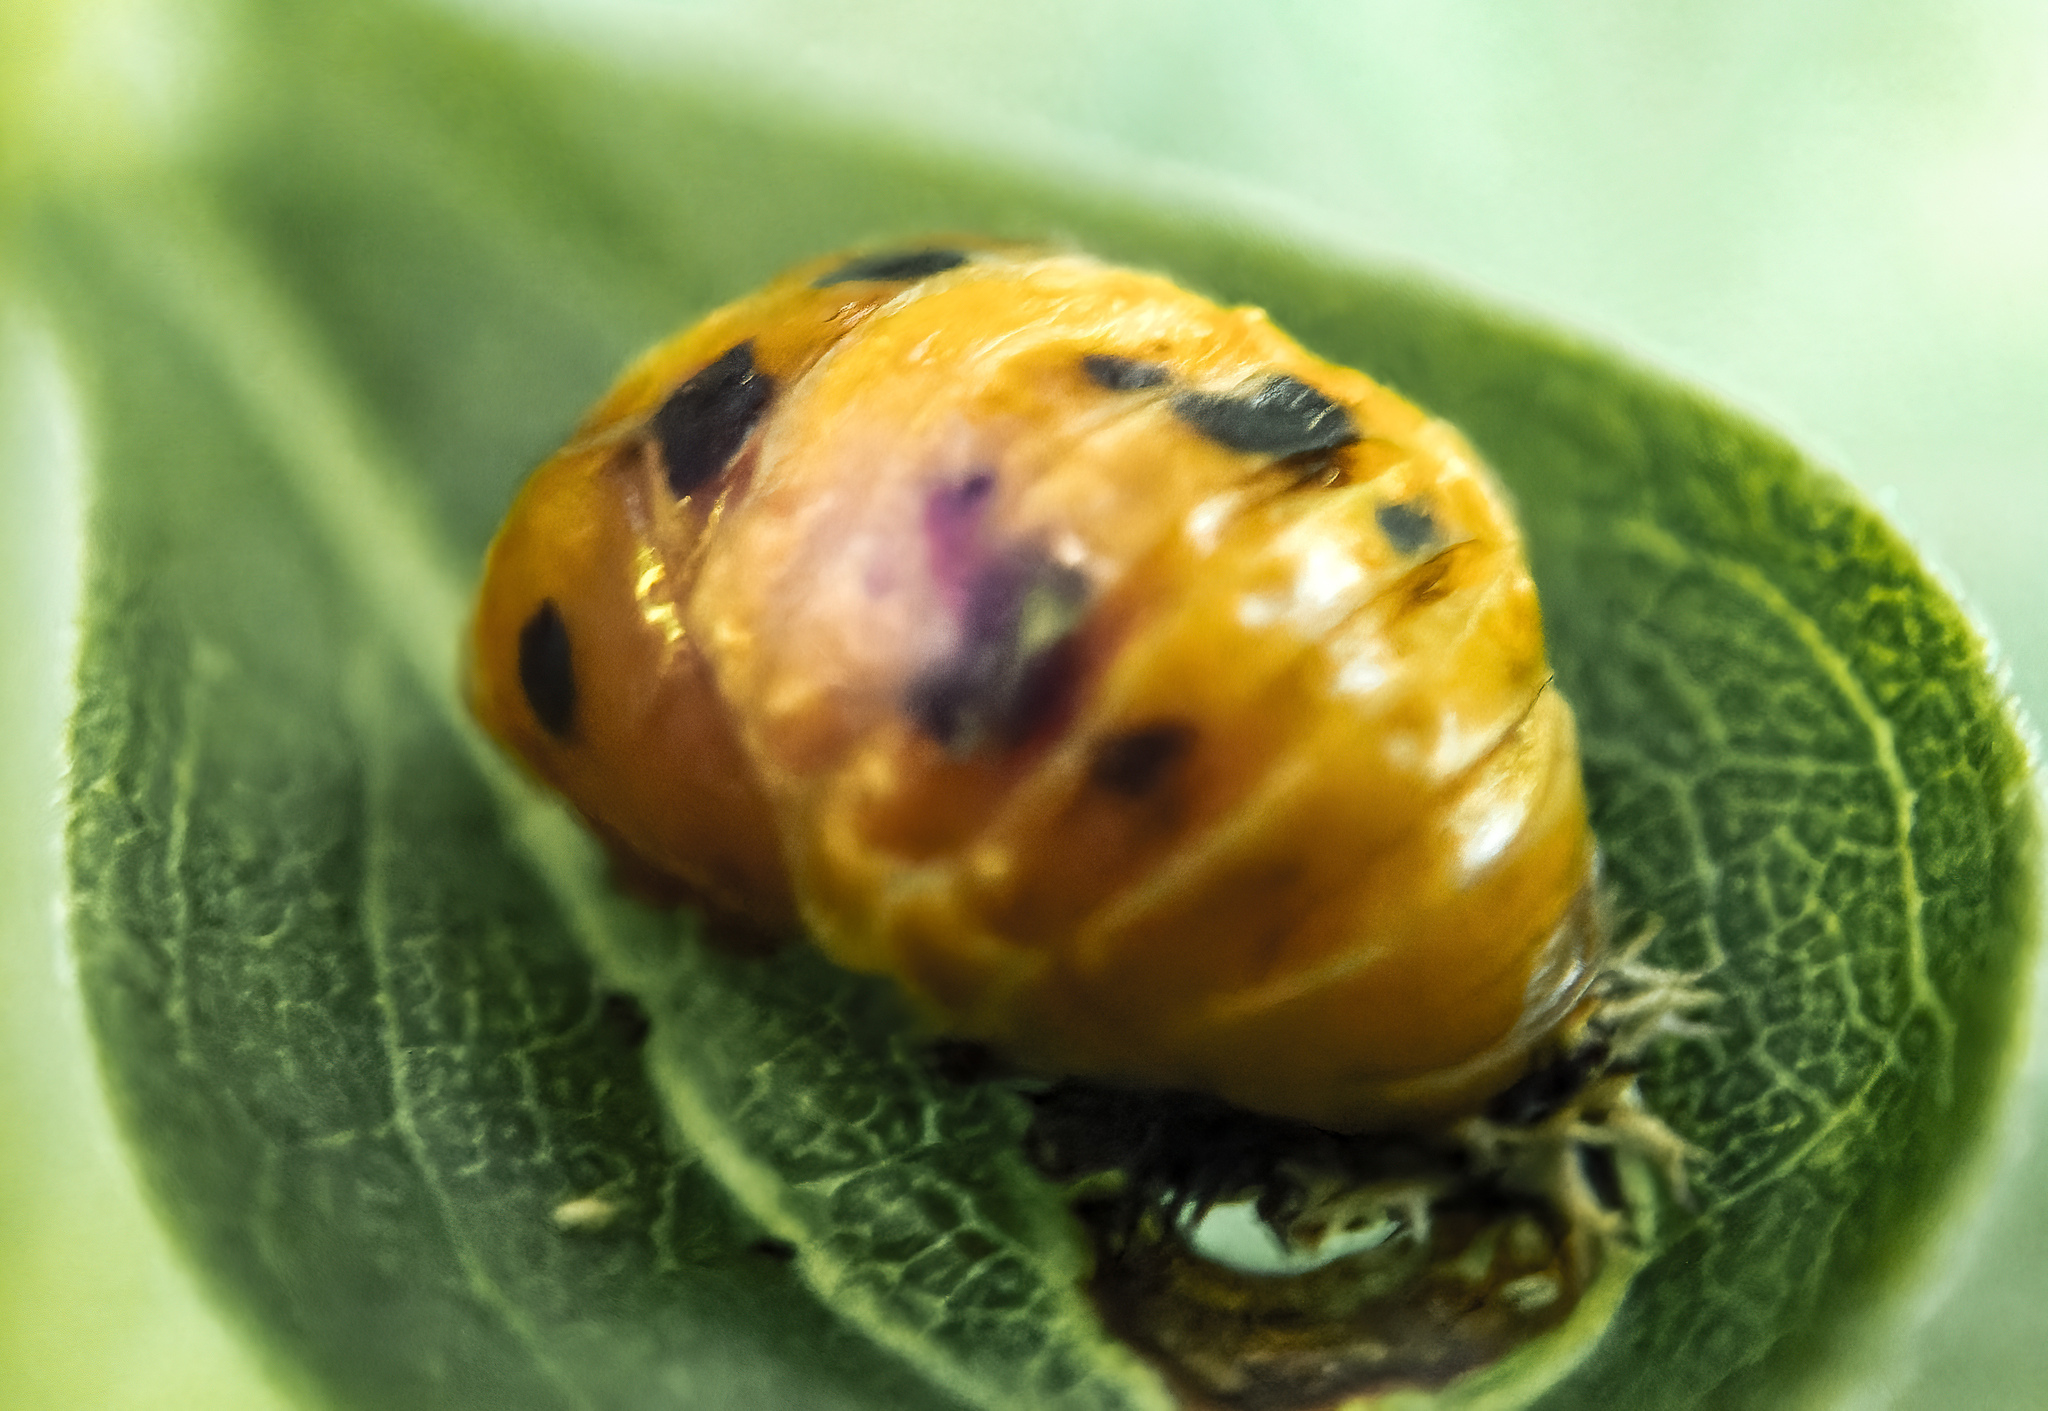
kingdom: Animalia
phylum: Arthropoda
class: Insecta
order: Coleoptera
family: Coccinellidae
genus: Harmonia
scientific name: Harmonia axyridis
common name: Harlequin ladybird
